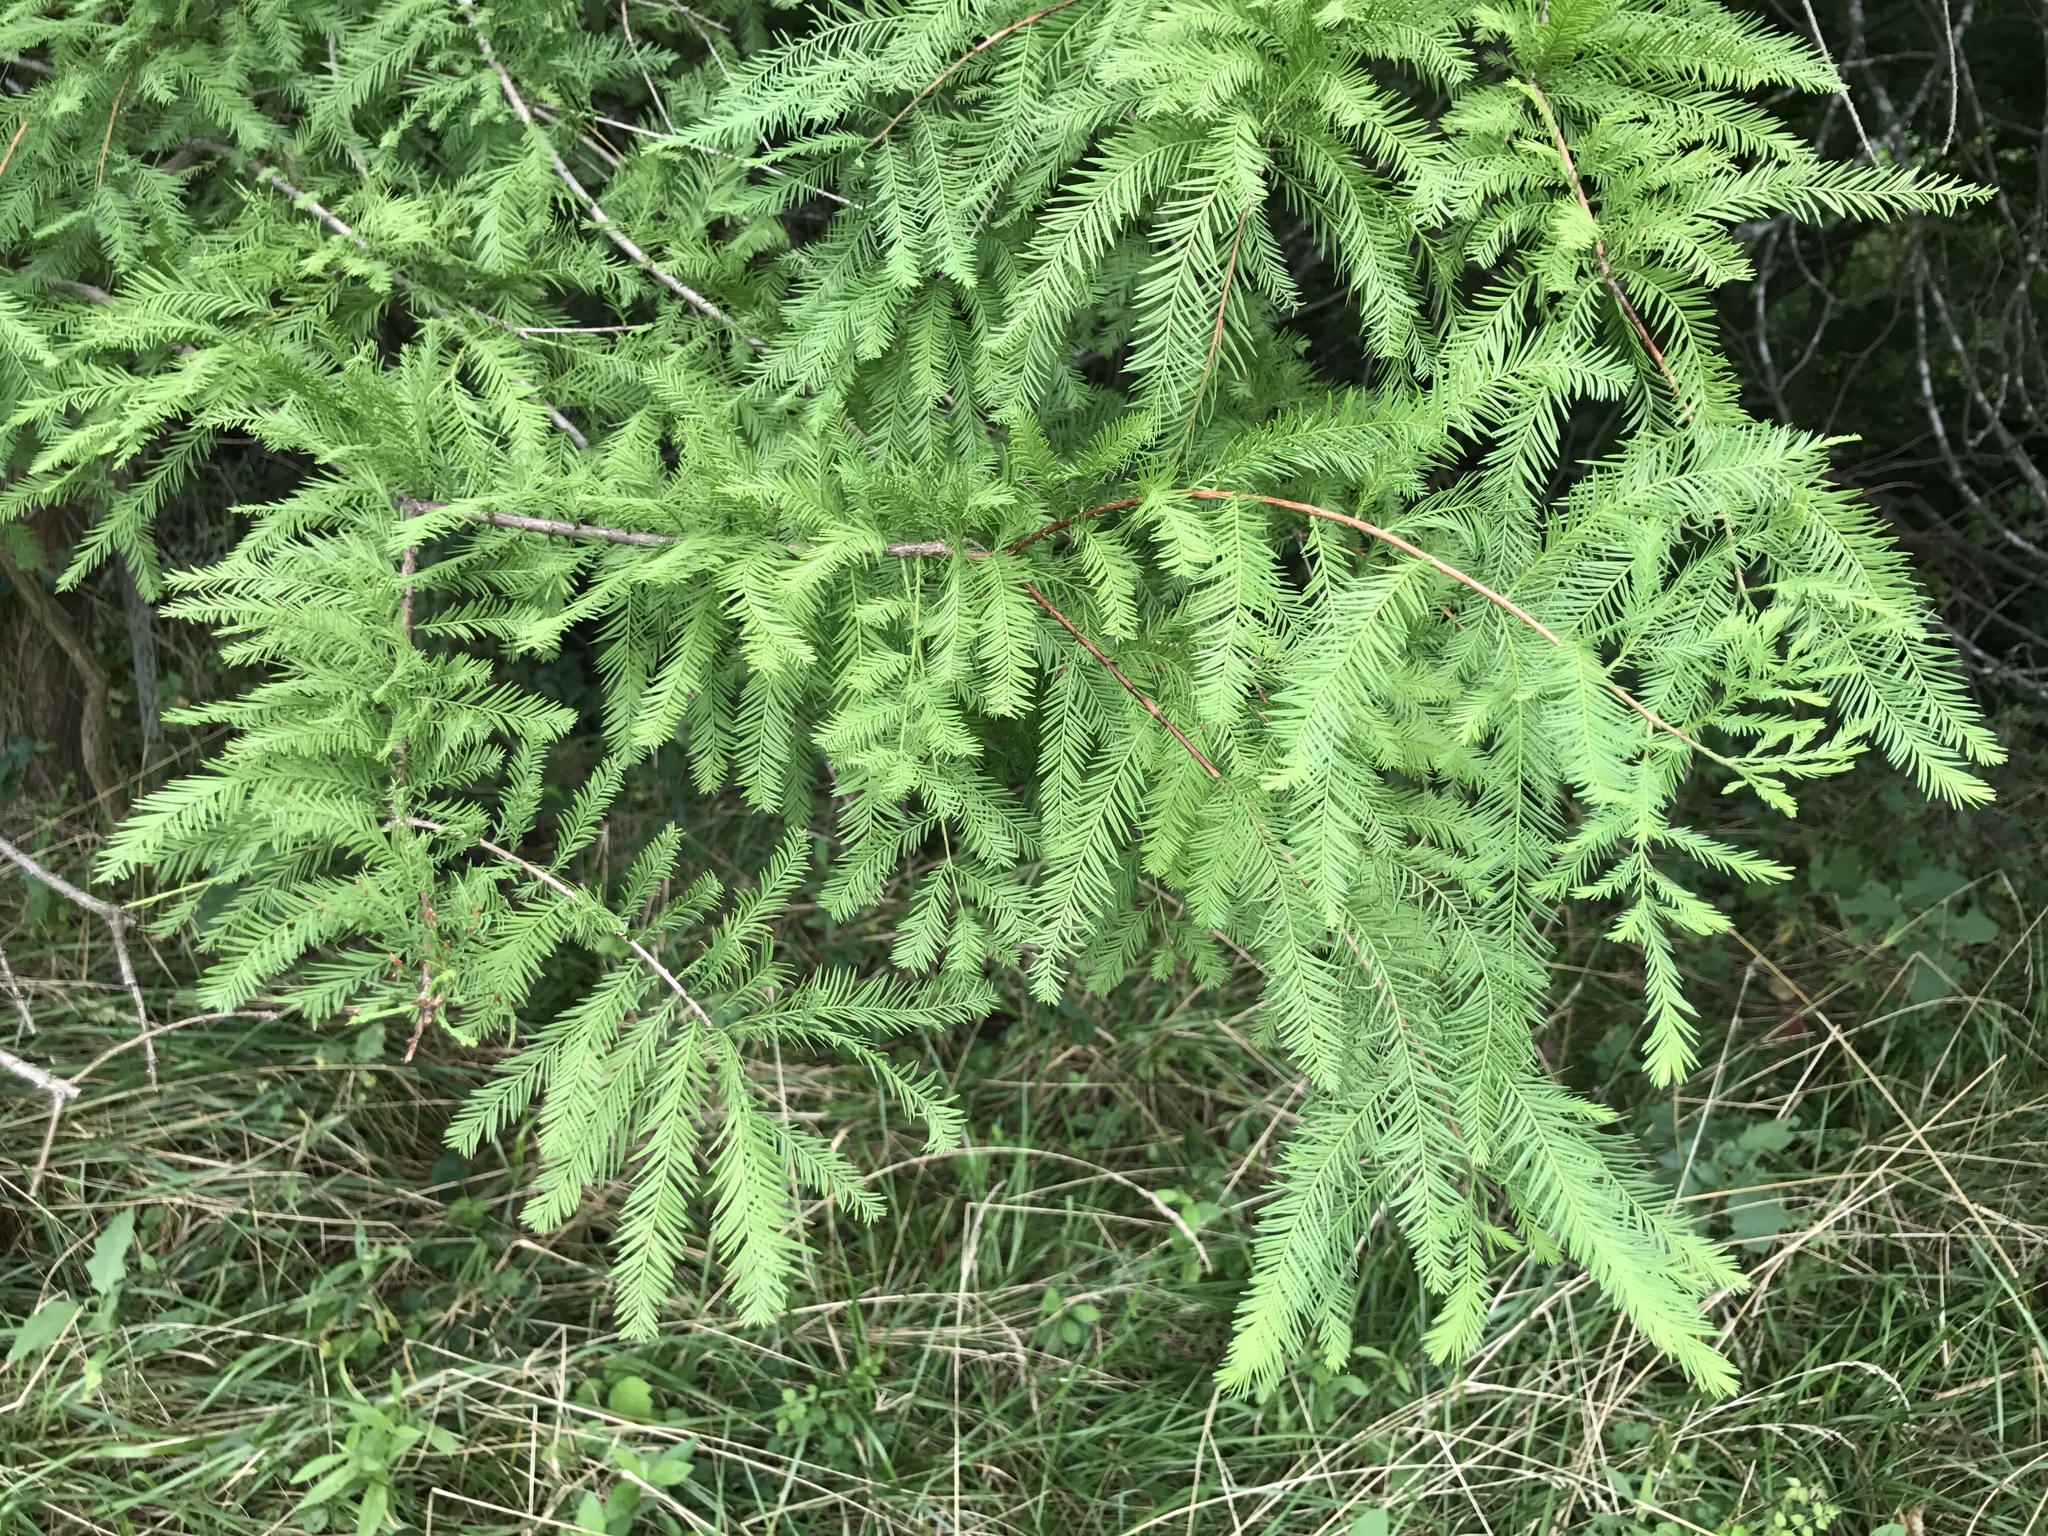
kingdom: Plantae
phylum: Tracheophyta
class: Pinopsida
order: Pinales
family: Cupressaceae
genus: Taxodium
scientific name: Taxodium distichum
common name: Bald cypress
